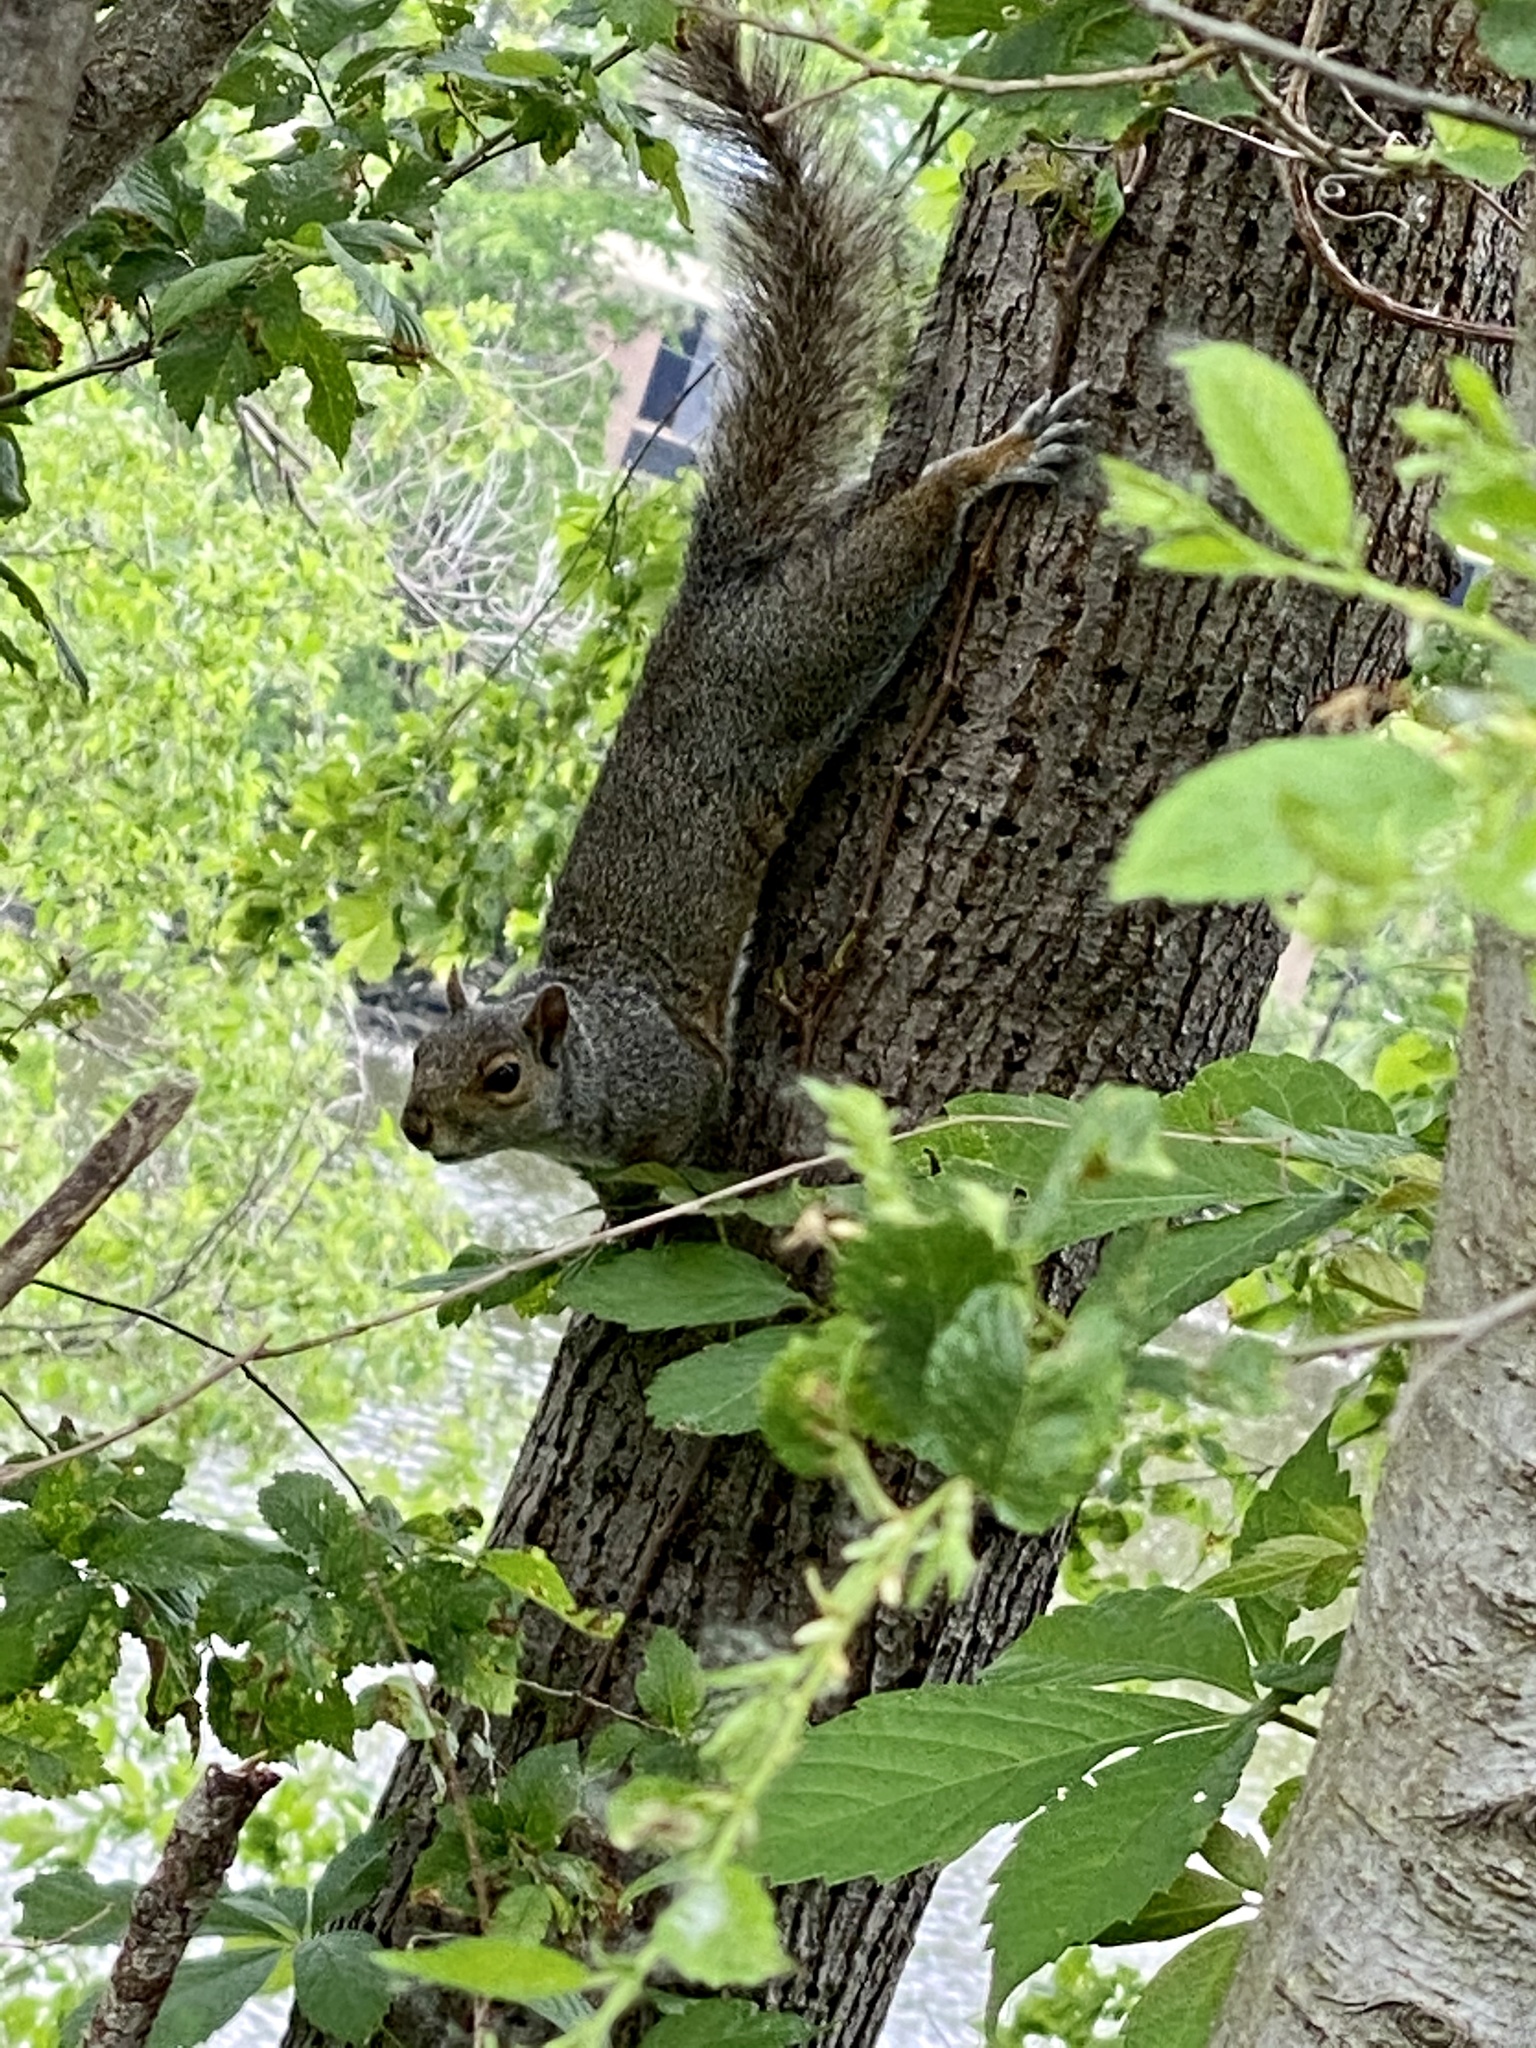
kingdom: Animalia
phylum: Chordata
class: Mammalia
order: Rodentia
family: Sciuridae
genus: Sciurus
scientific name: Sciurus carolinensis
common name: Eastern gray squirrel
